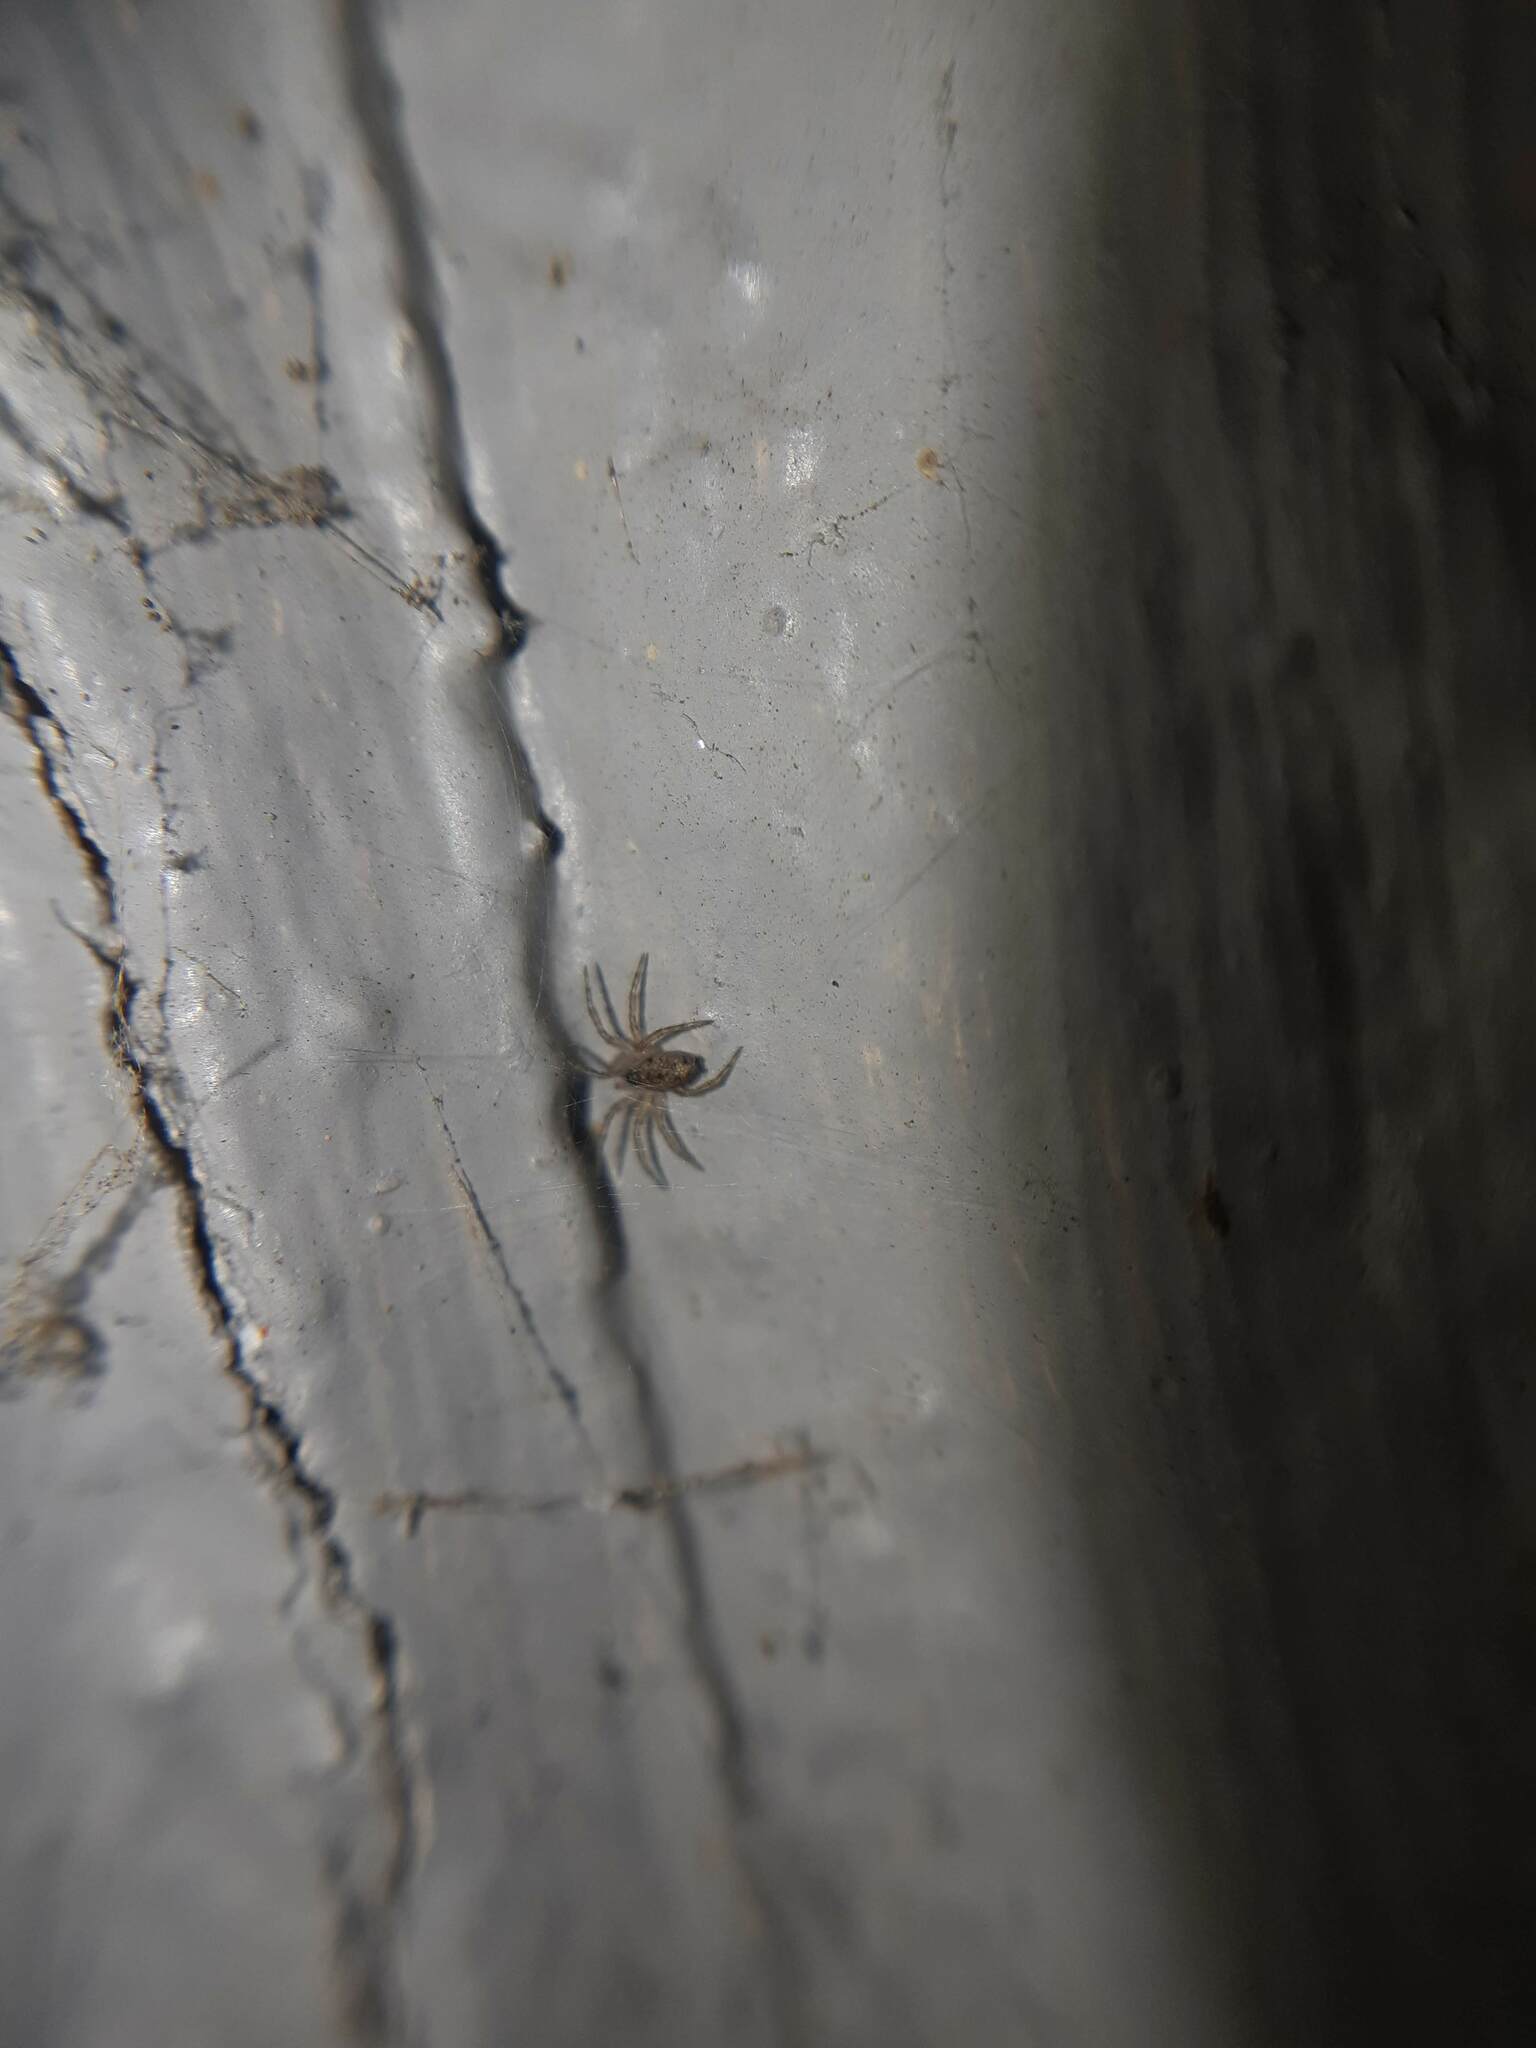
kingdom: Animalia
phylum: Arthropoda
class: Arachnida
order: Araneae
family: Oecobiidae
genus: Oecobius
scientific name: Oecobius navus
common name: Flatmesh weaver
